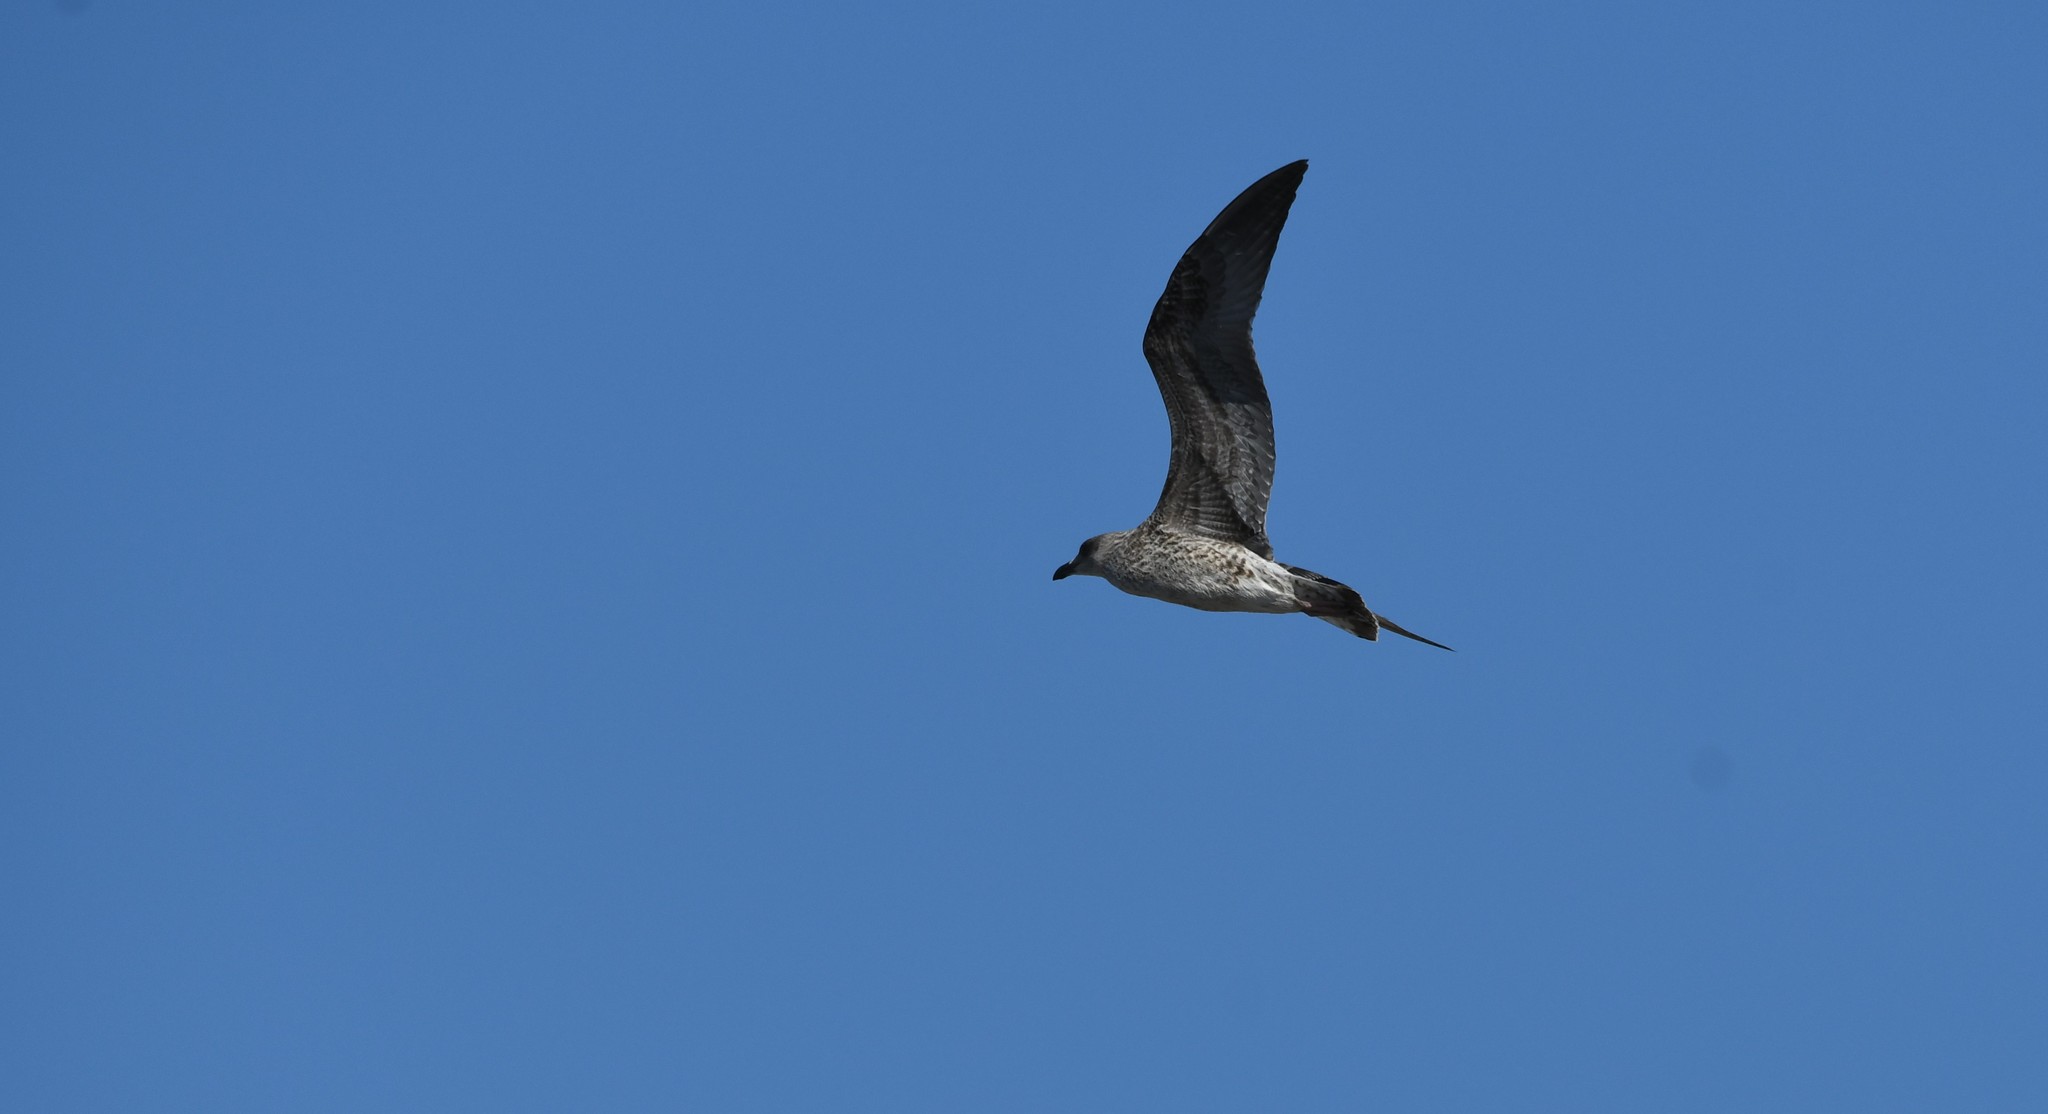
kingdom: Animalia
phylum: Chordata
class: Aves
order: Charadriiformes
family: Laridae
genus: Larus
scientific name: Larus fuscus
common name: Lesser black-backed gull
